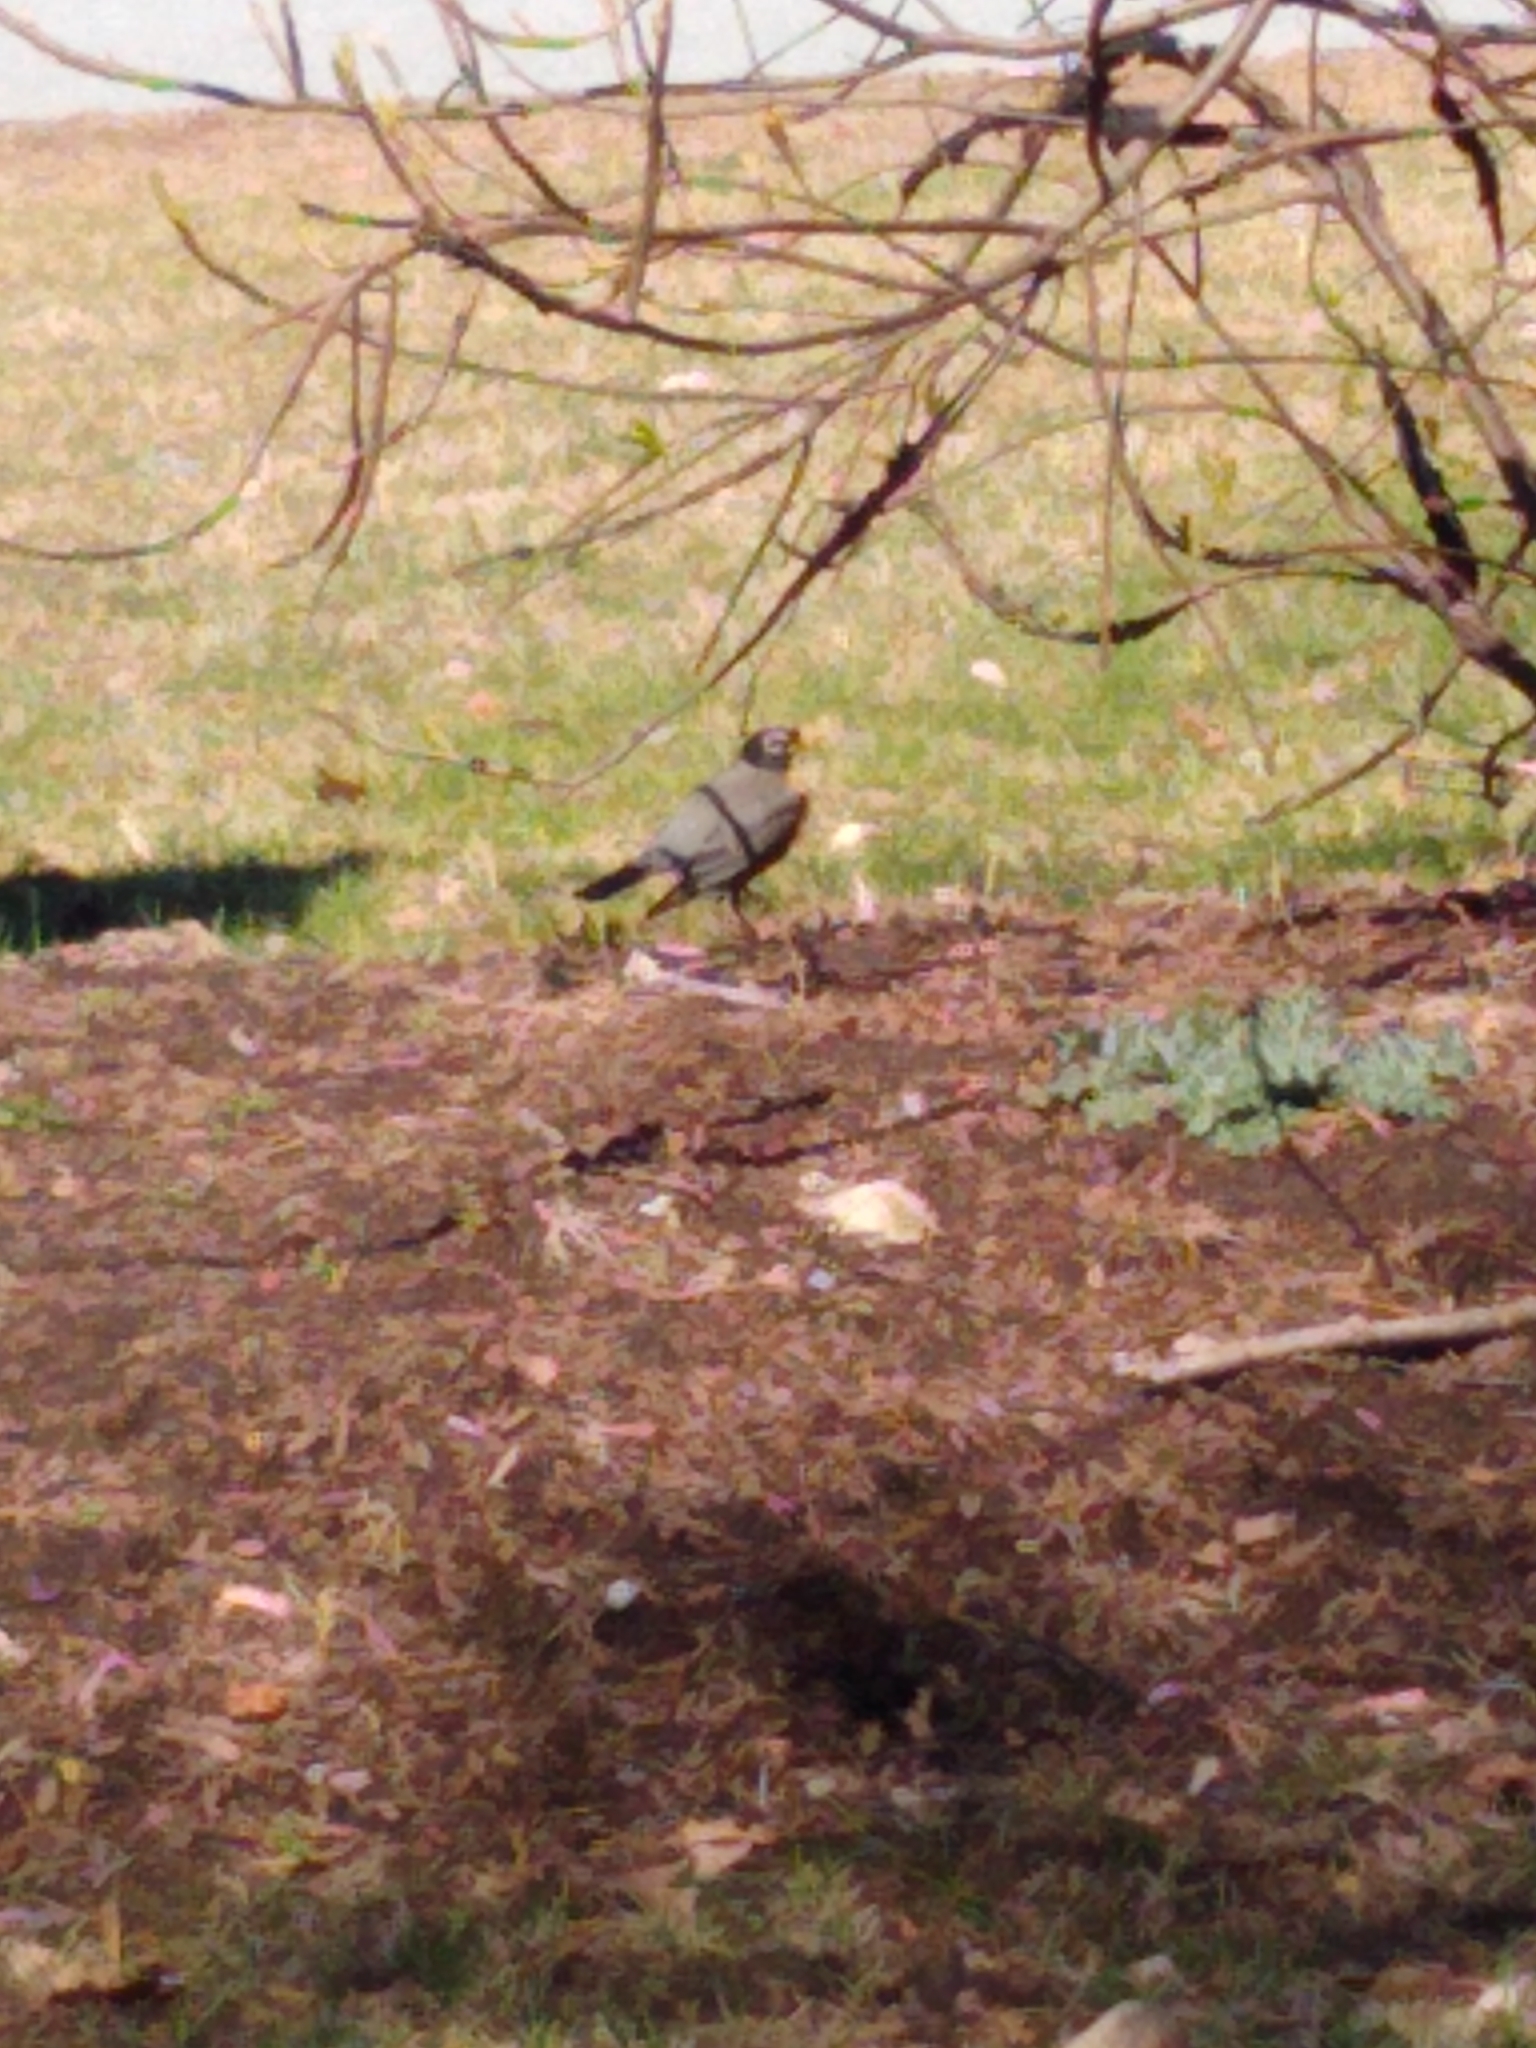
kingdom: Animalia
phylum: Chordata
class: Aves
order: Passeriformes
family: Turdidae
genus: Turdus
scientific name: Turdus migratorius
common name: American robin
